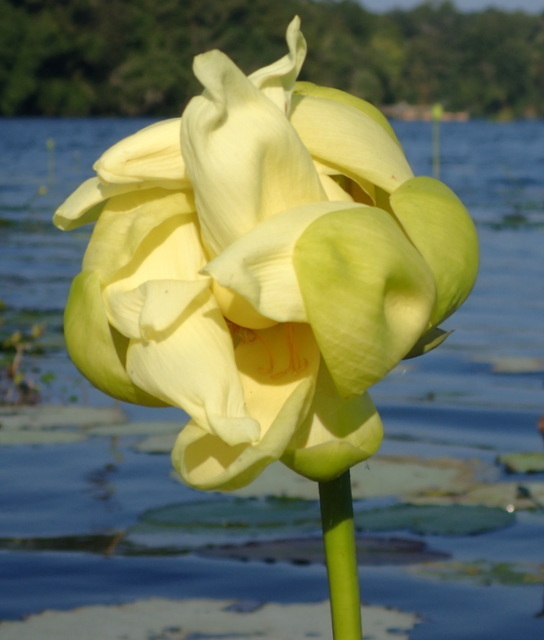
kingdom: Plantae
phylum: Tracheophyta
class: Magnoliopsida
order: Proteales
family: Nelumbonaceae
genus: Nelumbo
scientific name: Nelumbo lutea
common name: American lotus
